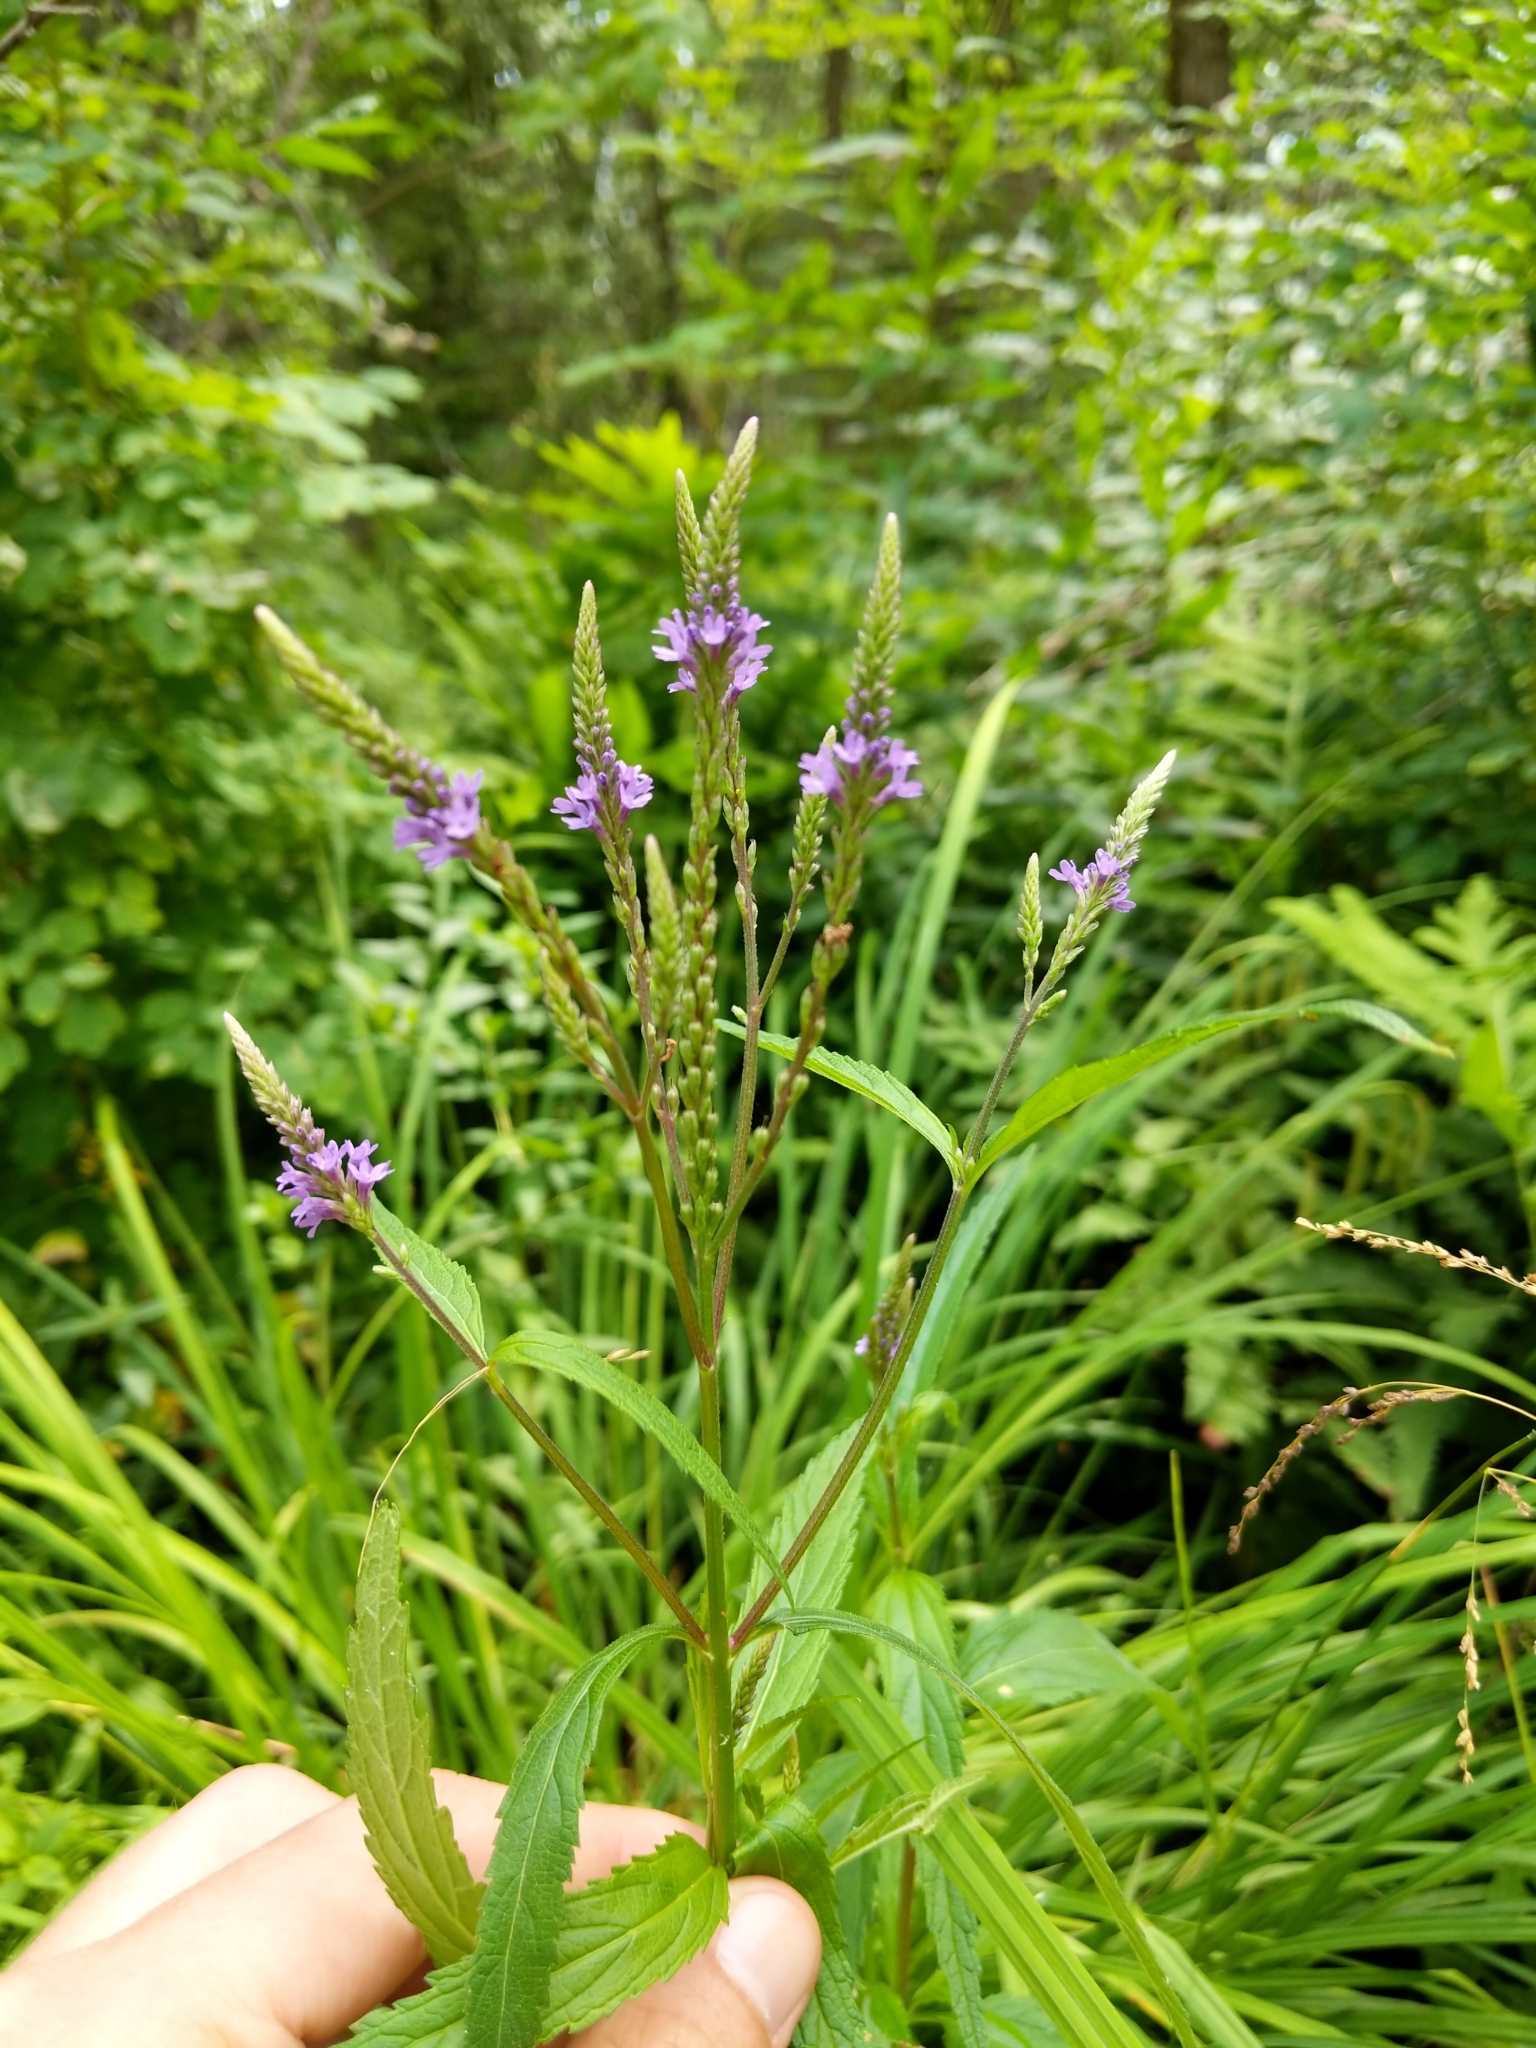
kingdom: Plantae
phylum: Tracheophyta
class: Magnoliopsida
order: Lamiales
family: Verbenaceae
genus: Verbena
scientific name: Verbena hastata
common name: American blue vervain
